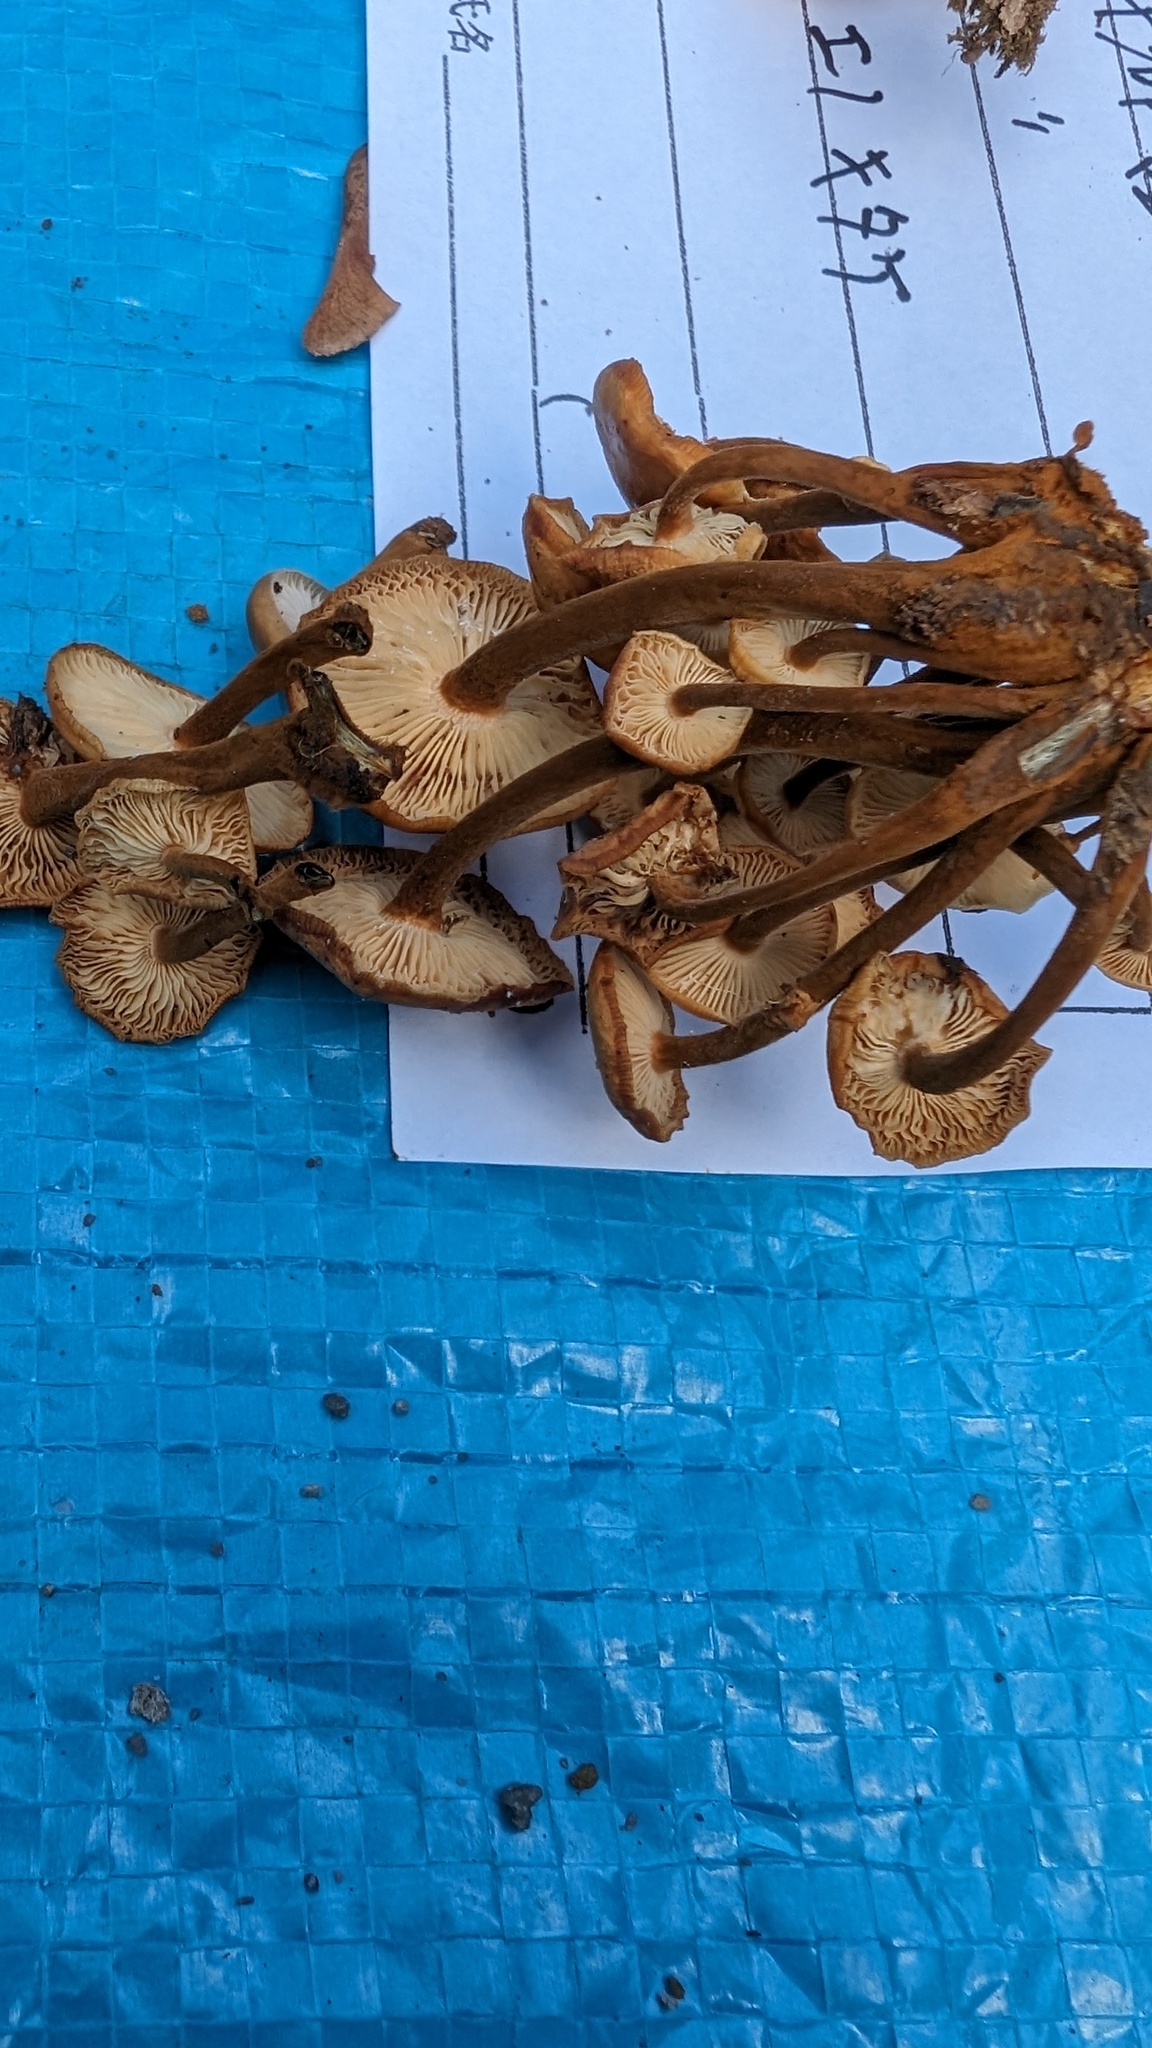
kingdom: Fungi
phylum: Basidiomycota
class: Agaricomycetes
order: Agaricales
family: Physalacriaceae
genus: Flammulina
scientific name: Flammulina velutipes
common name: Velvet shank
